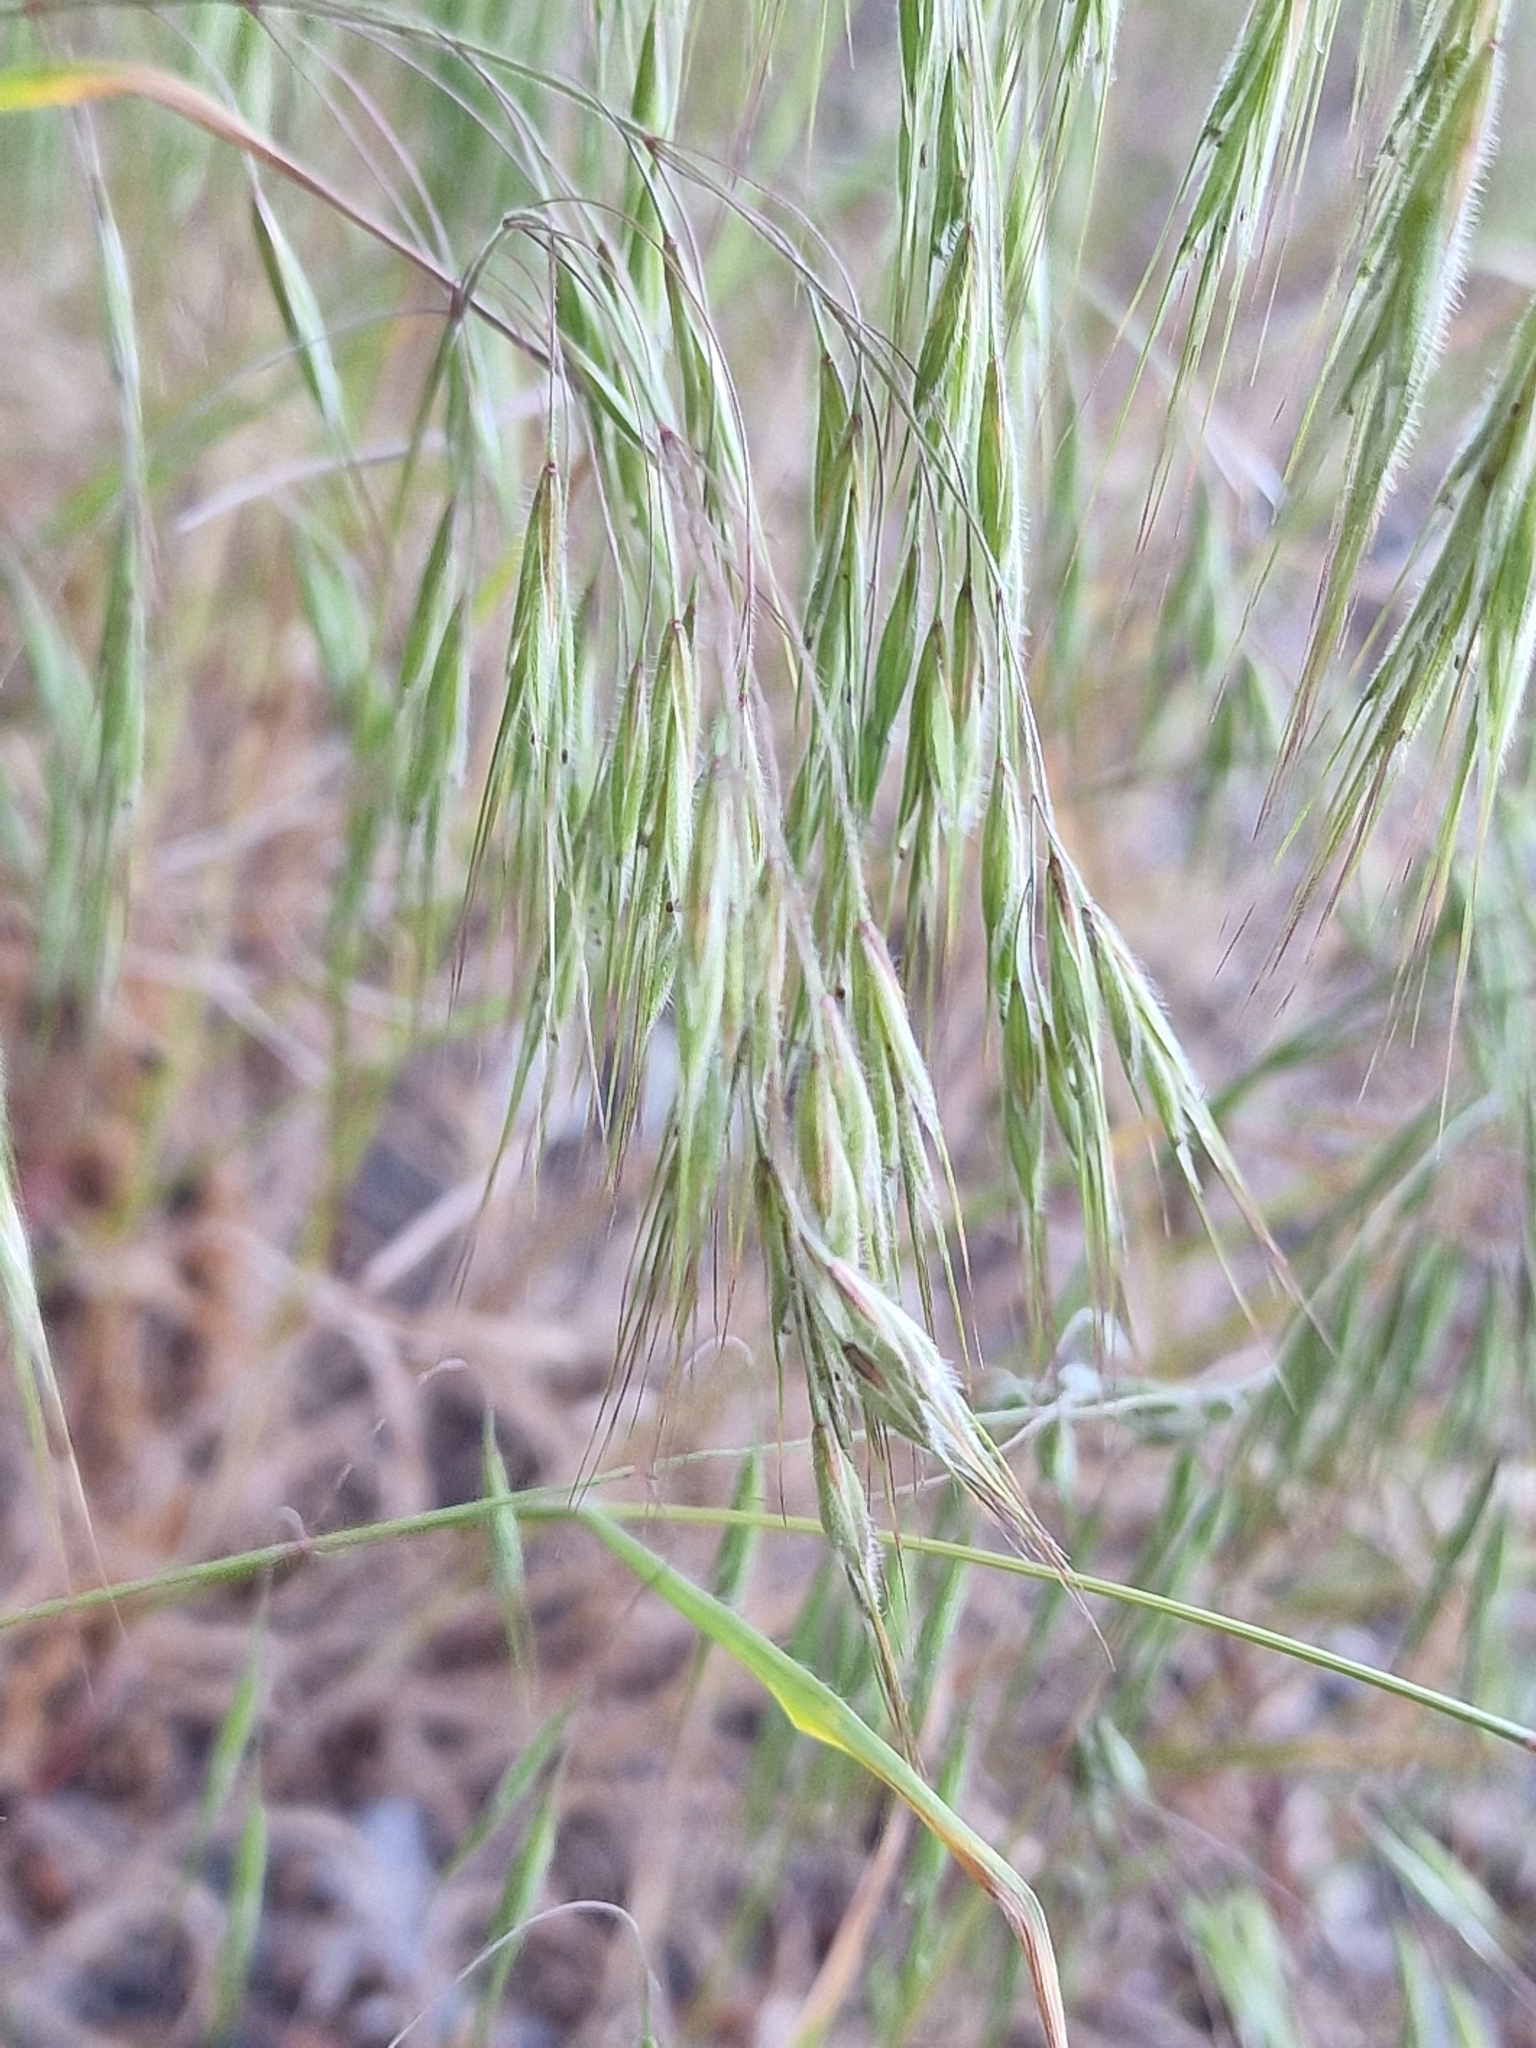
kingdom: Plantae
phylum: Tracheophyta
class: Liliopsida
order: Poales
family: Poaceae
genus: Bromus
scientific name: Bromus tectorum
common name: Cheatgrass
